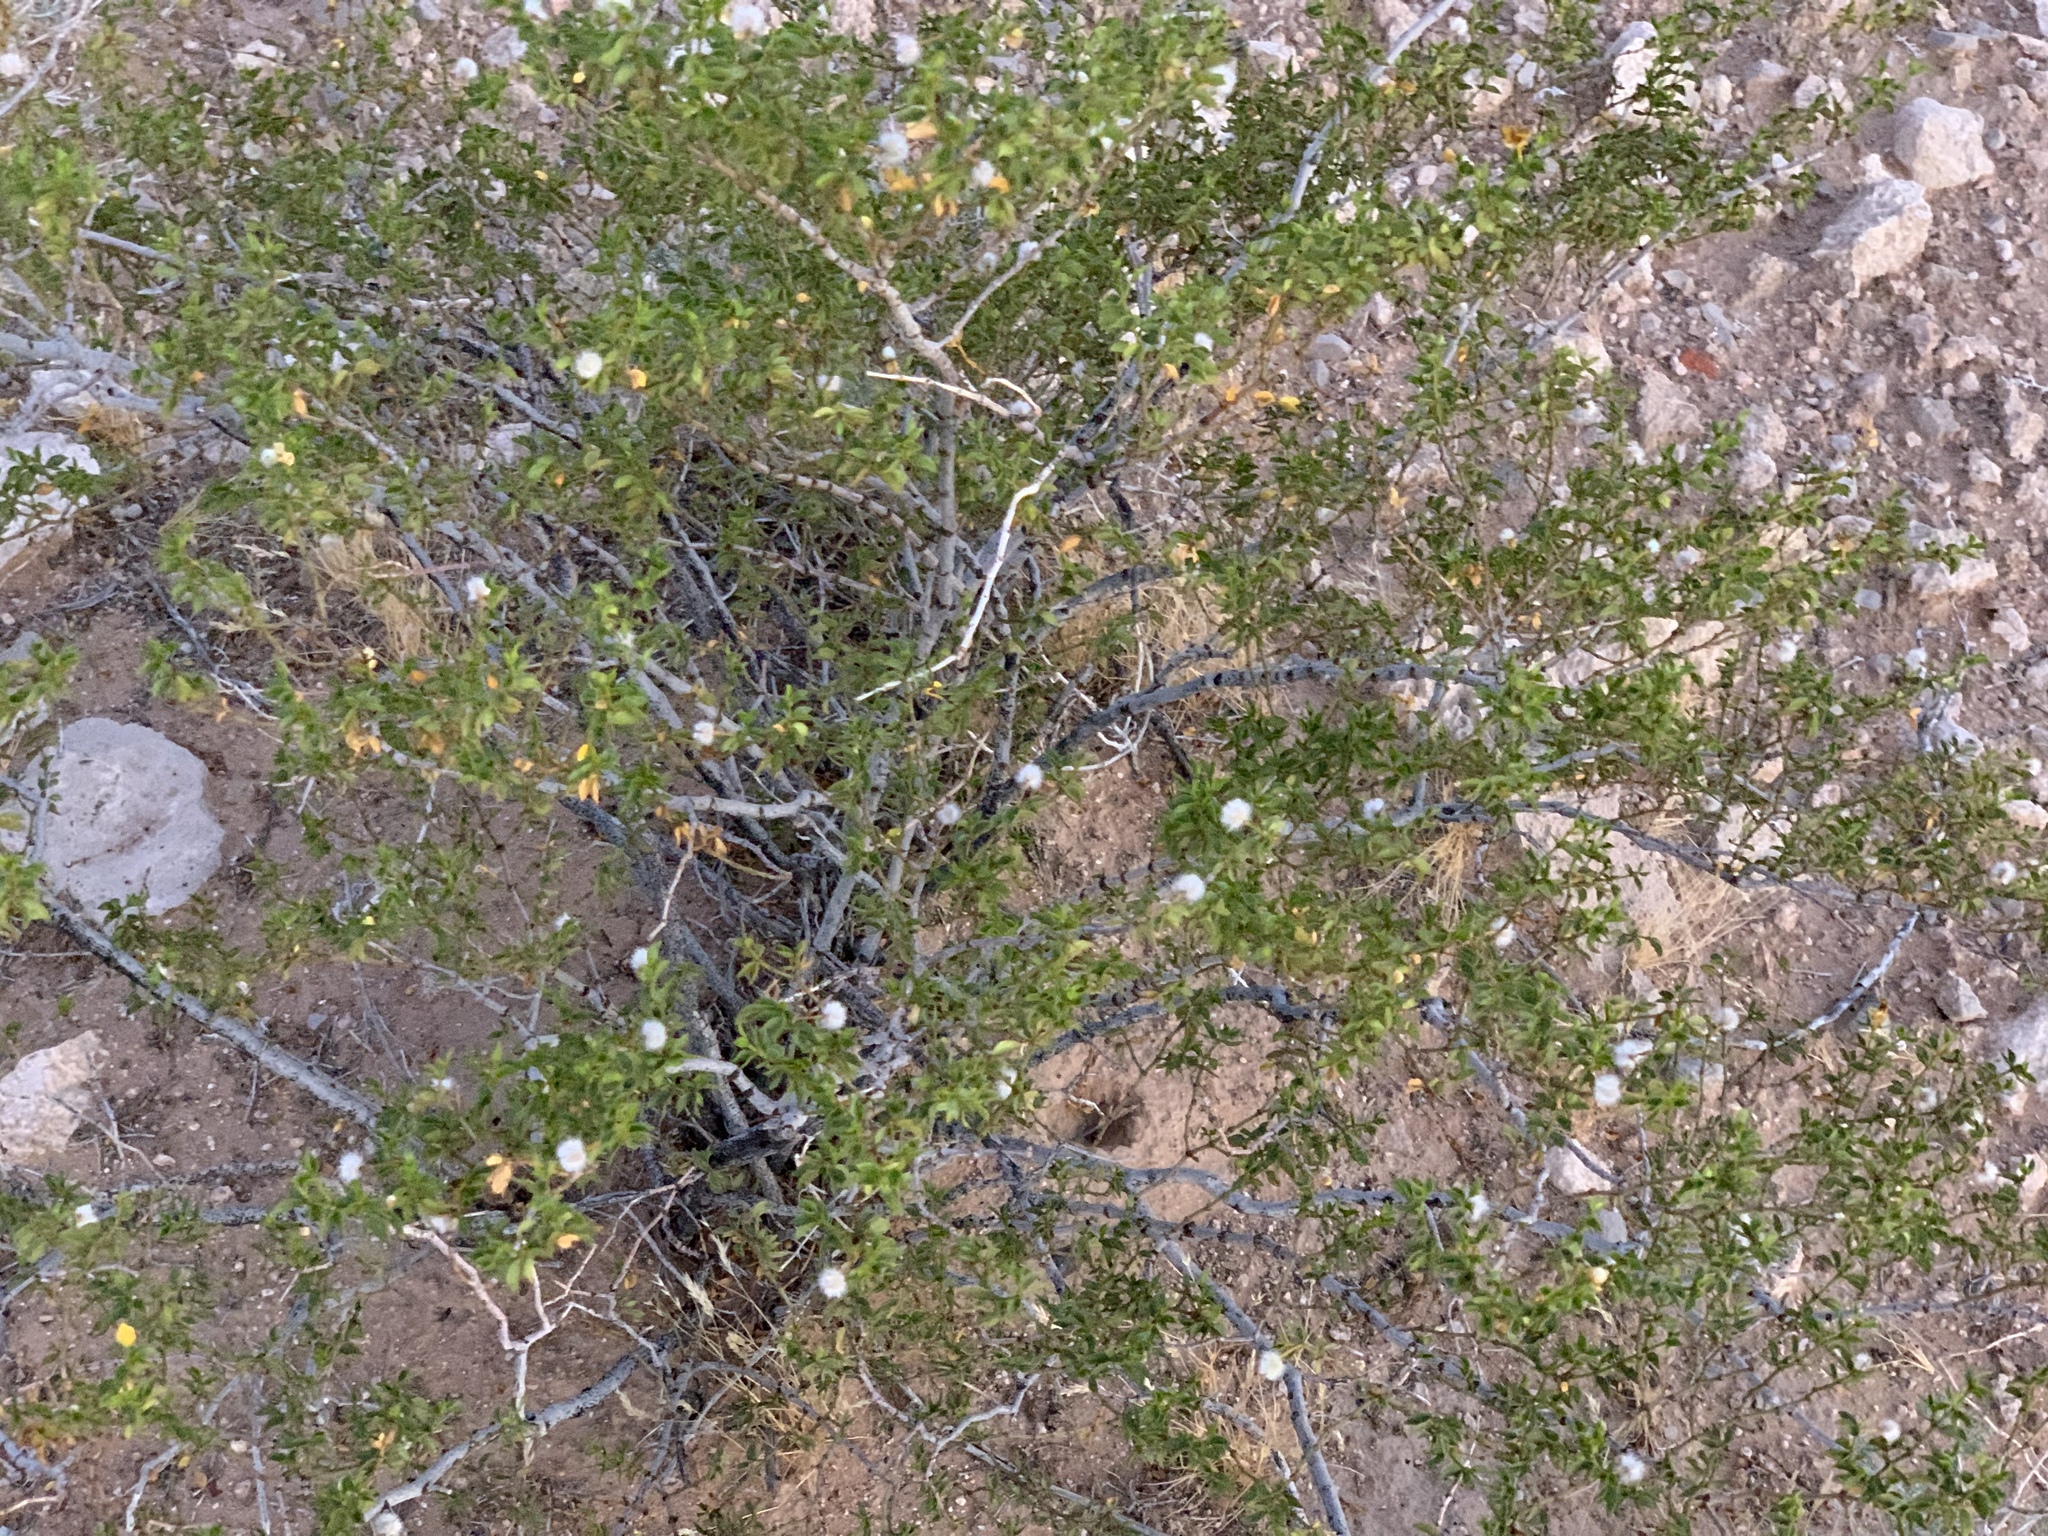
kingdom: Plantae
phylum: Tracheophyta
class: Magnoliopsida
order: Zygophyllales
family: Zygophyllaceae
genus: Larrea
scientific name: Larrea tridentata
